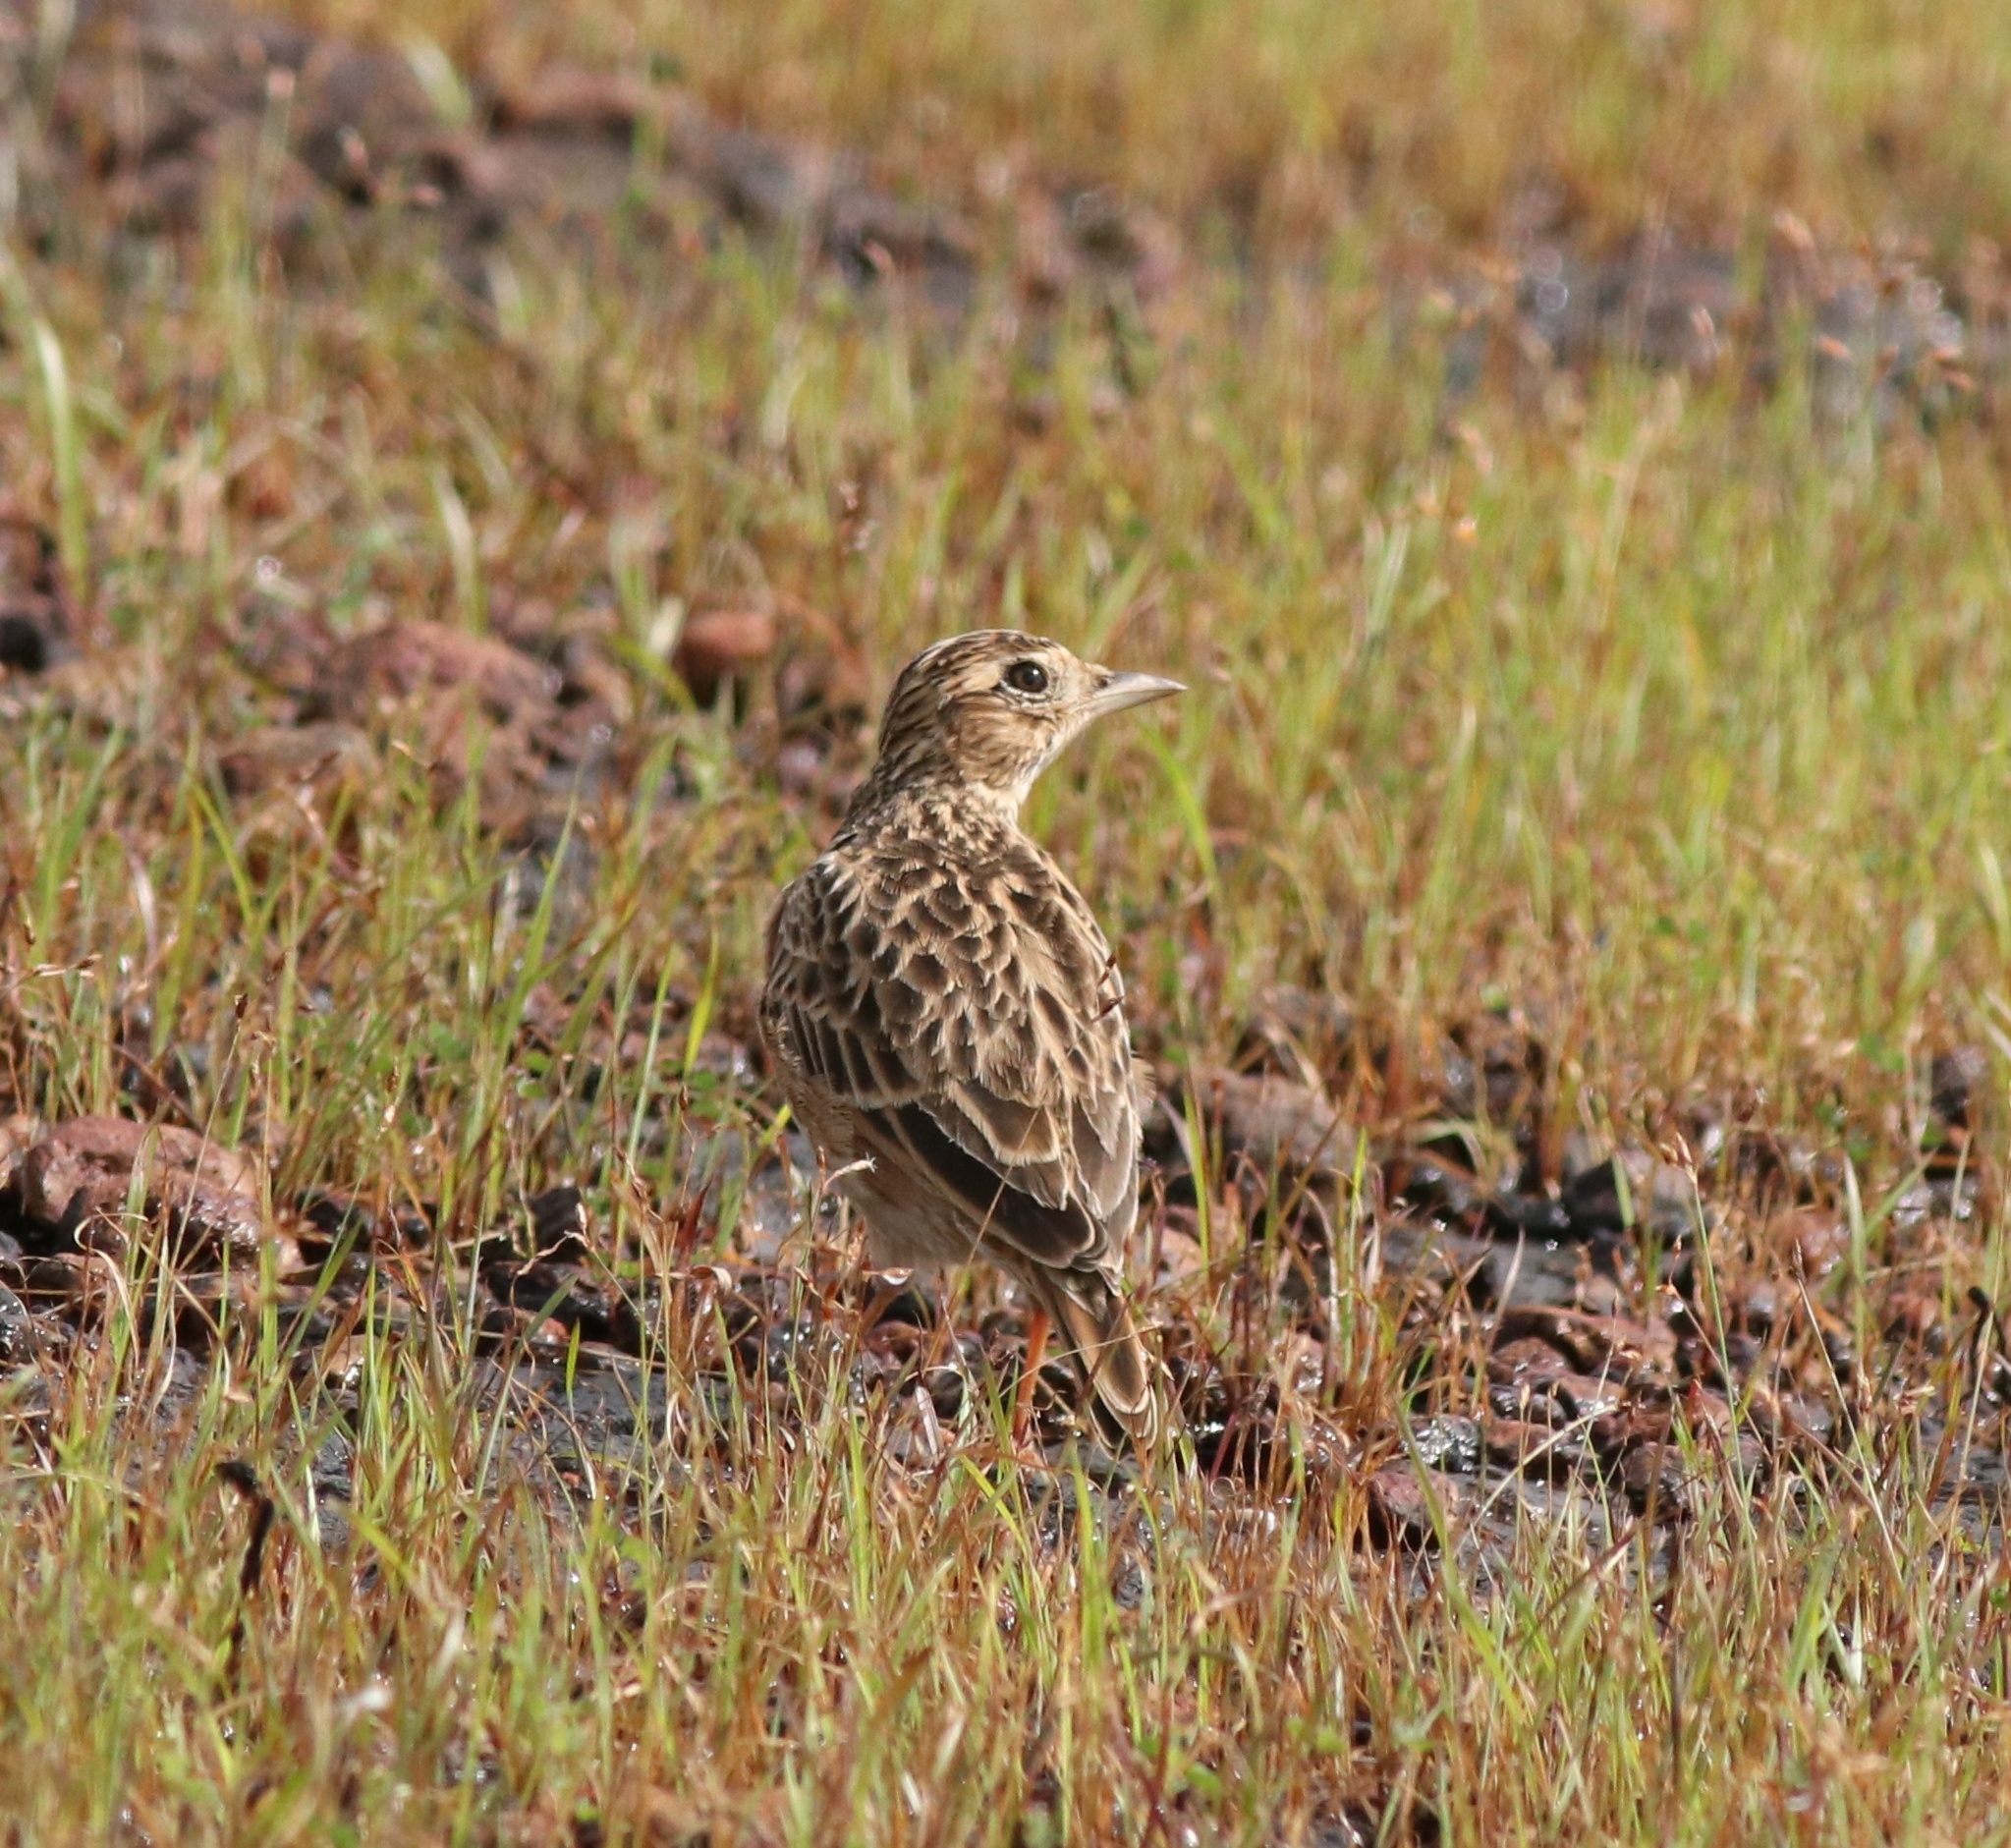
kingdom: Animalia
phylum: Chordata
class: Aves
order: Passeriformes
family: Alaudidae
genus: Alauda
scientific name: Alauda gulgula
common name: Oriental skylark
